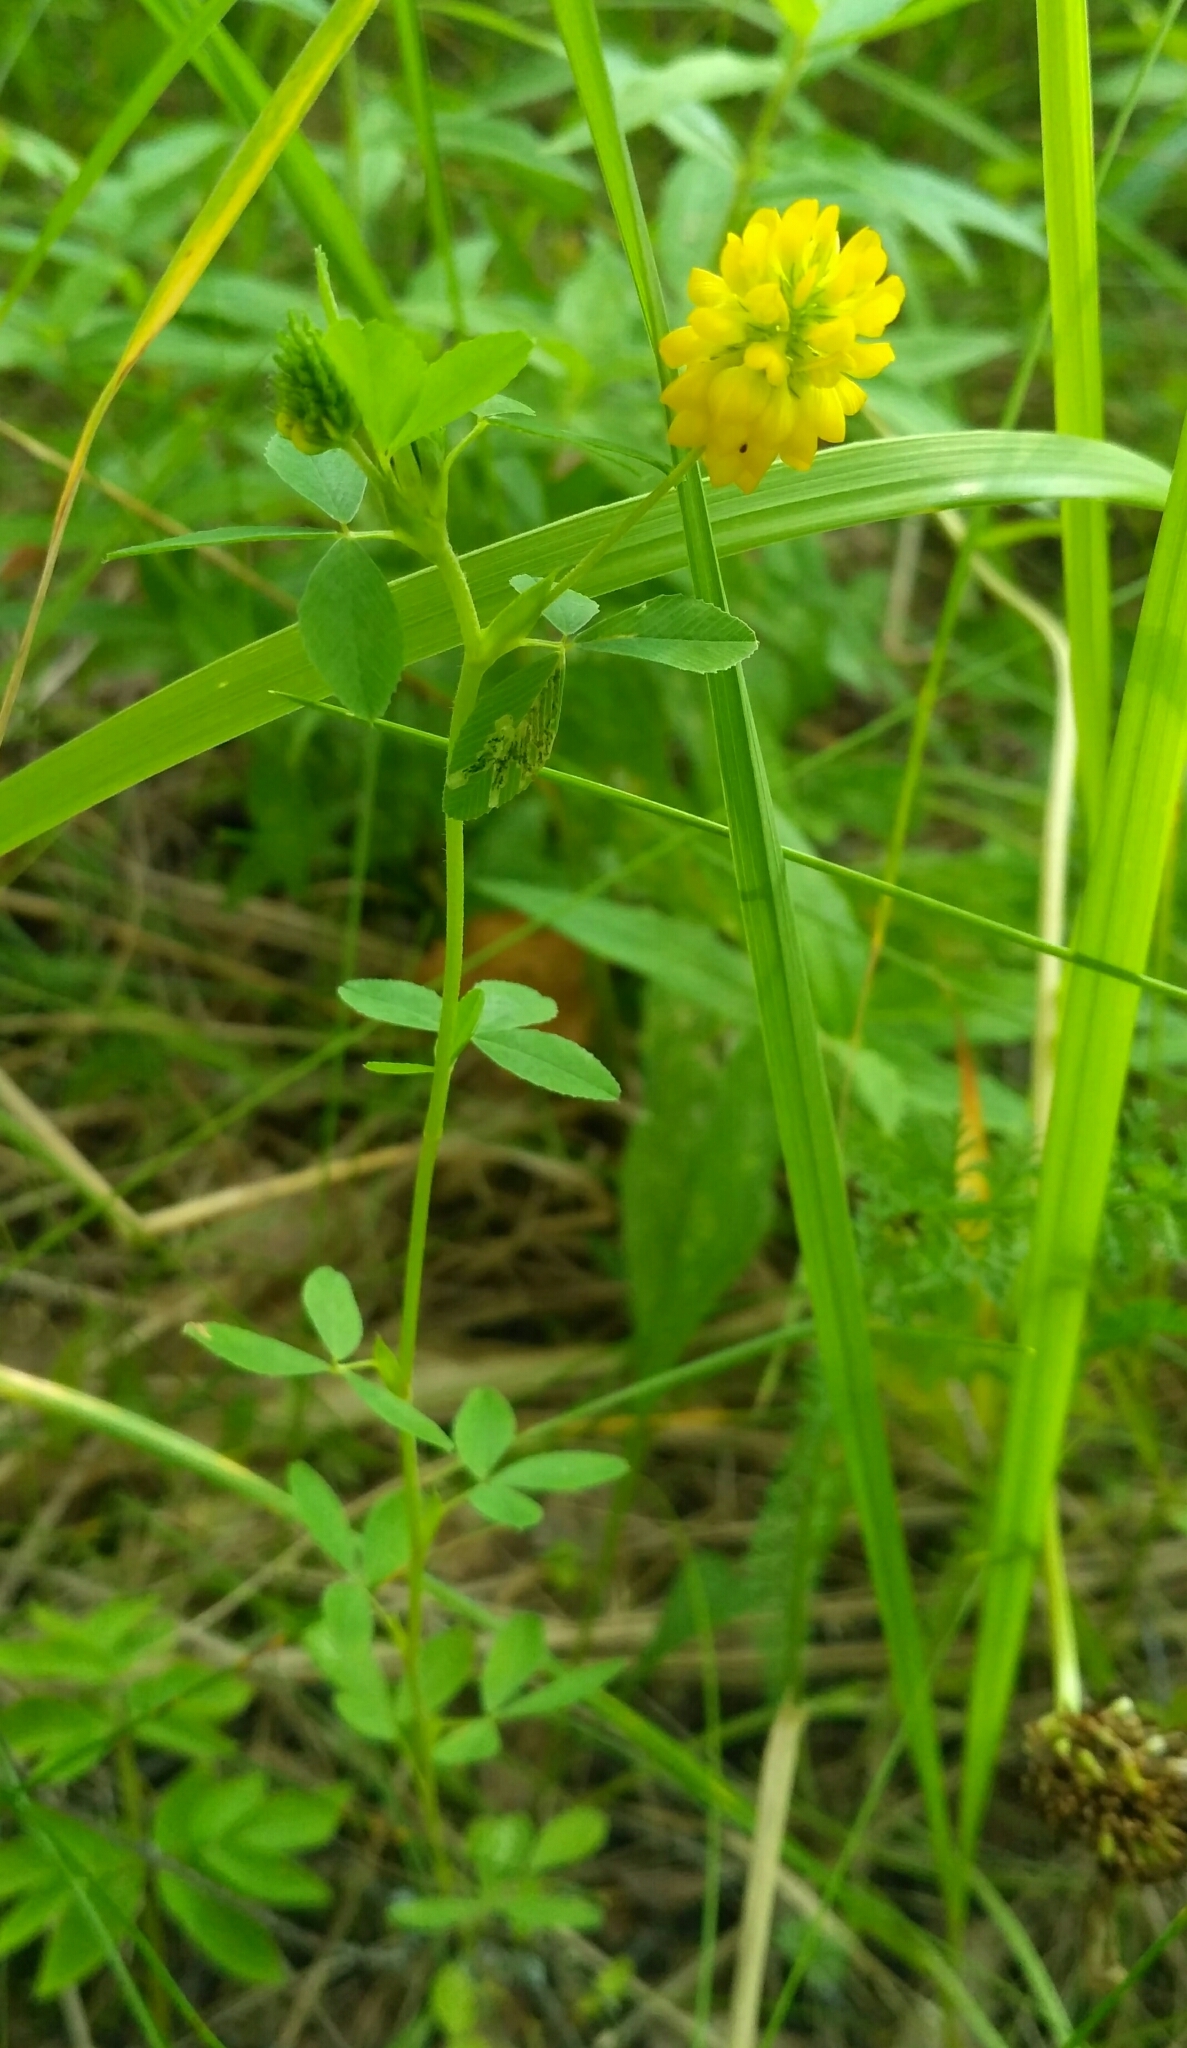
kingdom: Plantae
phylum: Tracheophyta
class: Magnoliopsida
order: Fabales
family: Fabaceae
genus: Trifolium
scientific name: Trifolium aureum
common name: Golden clover
